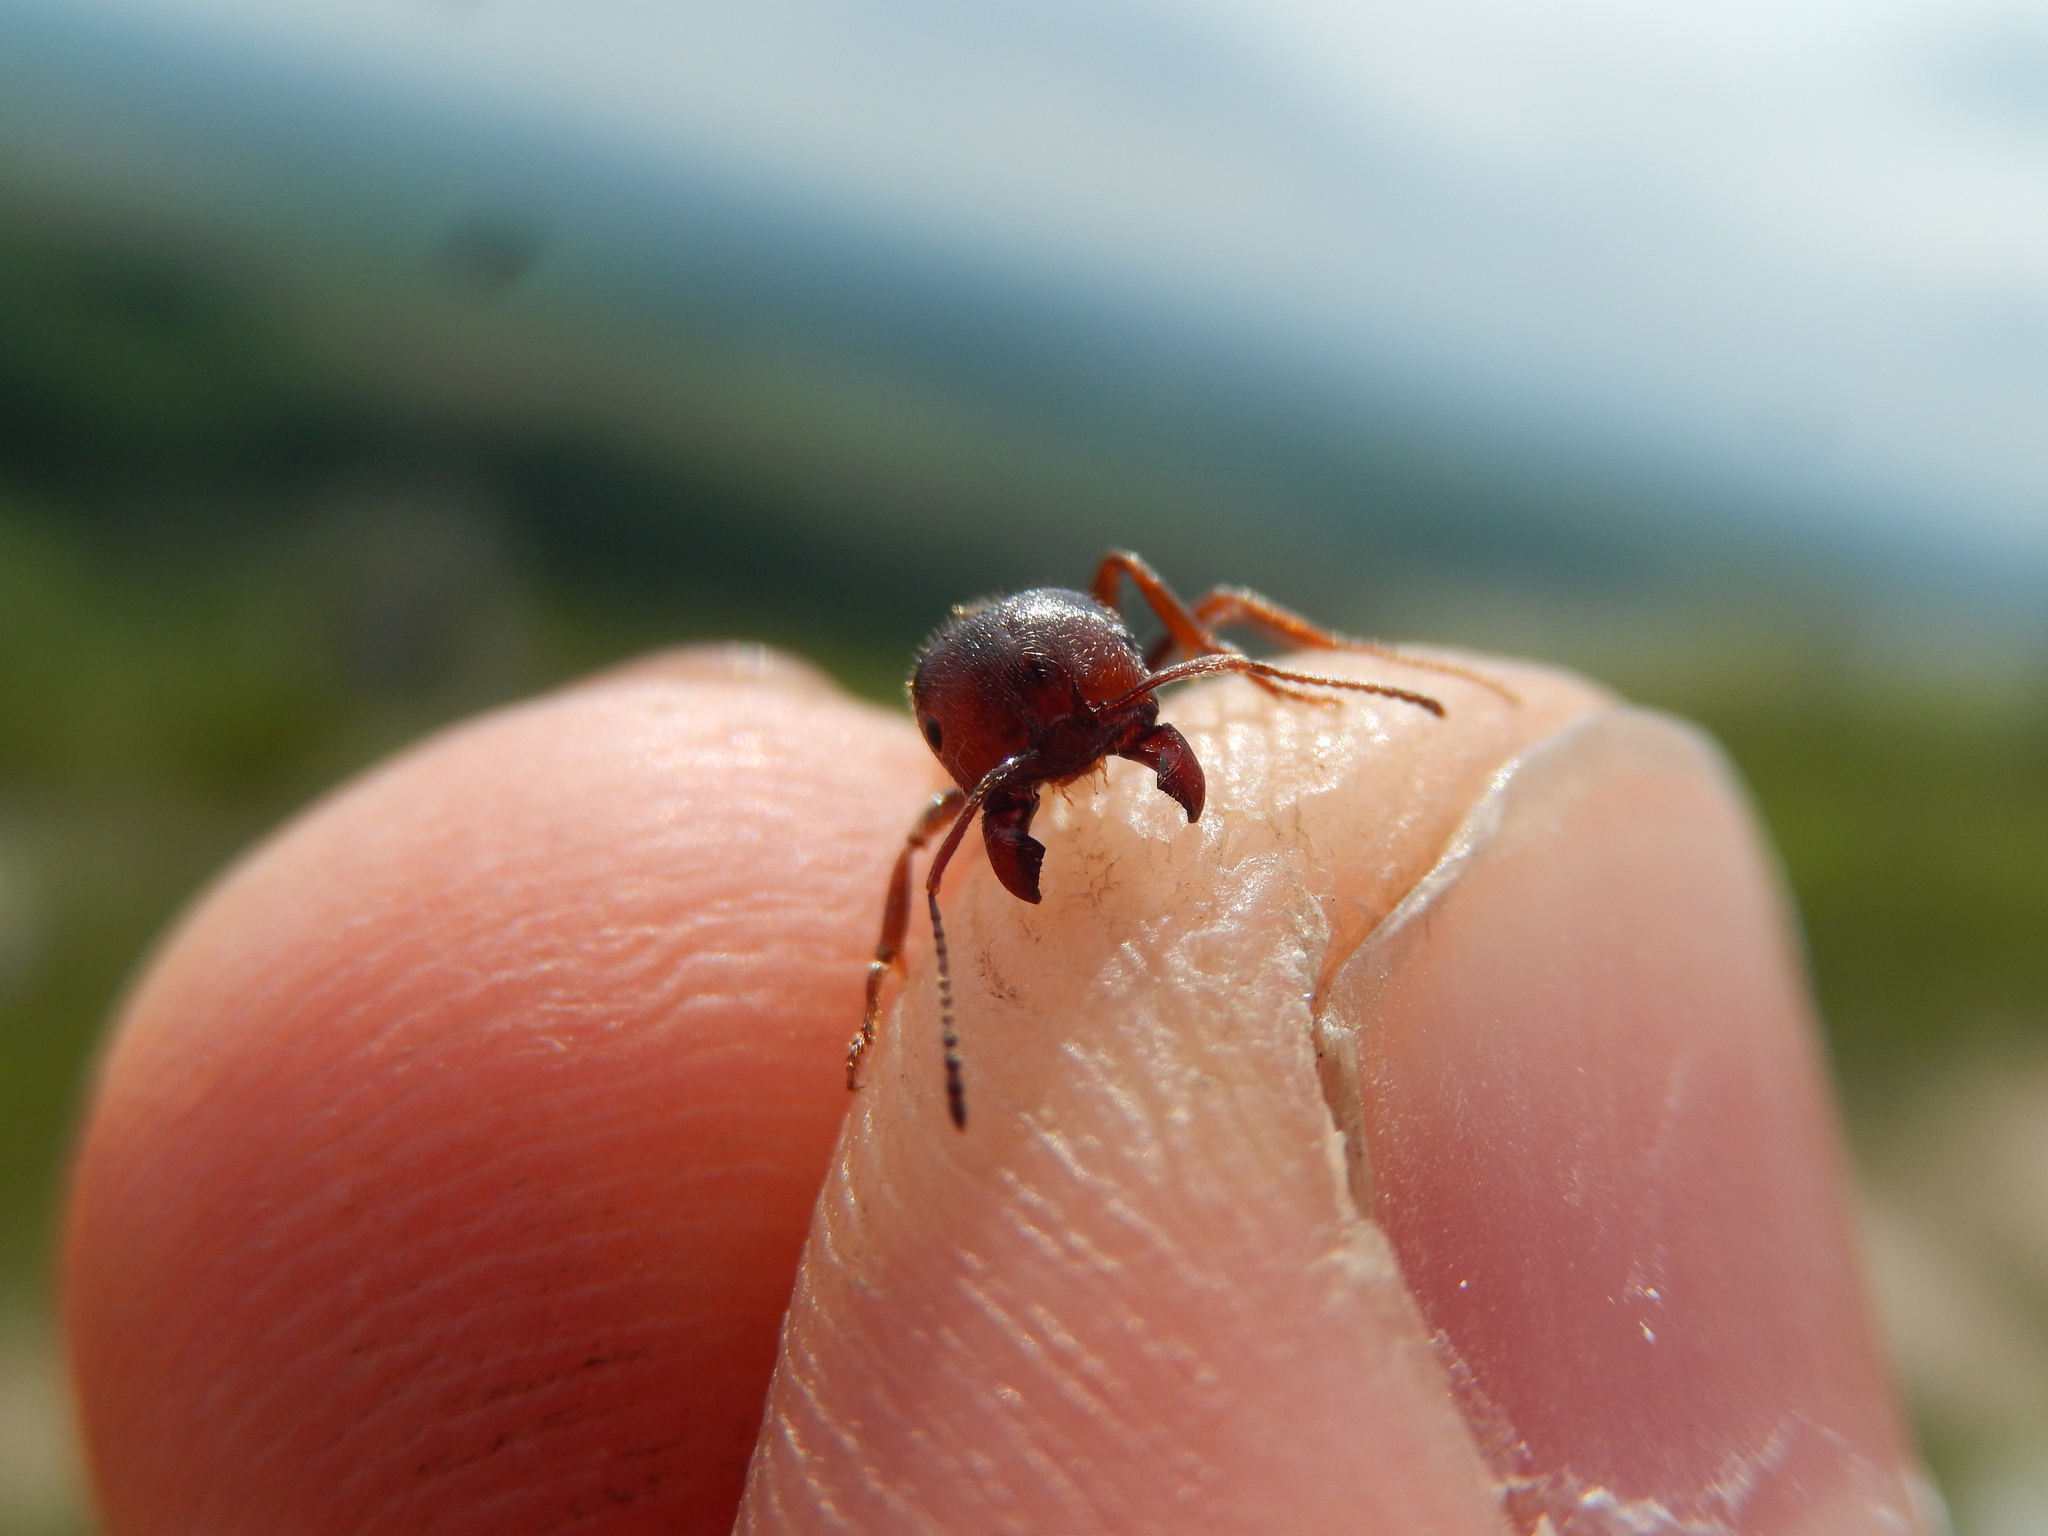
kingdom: Animalia
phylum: Arthropoda
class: Insecta
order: Hymenoptera
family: Formicidae
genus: Messor
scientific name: Messor structor
